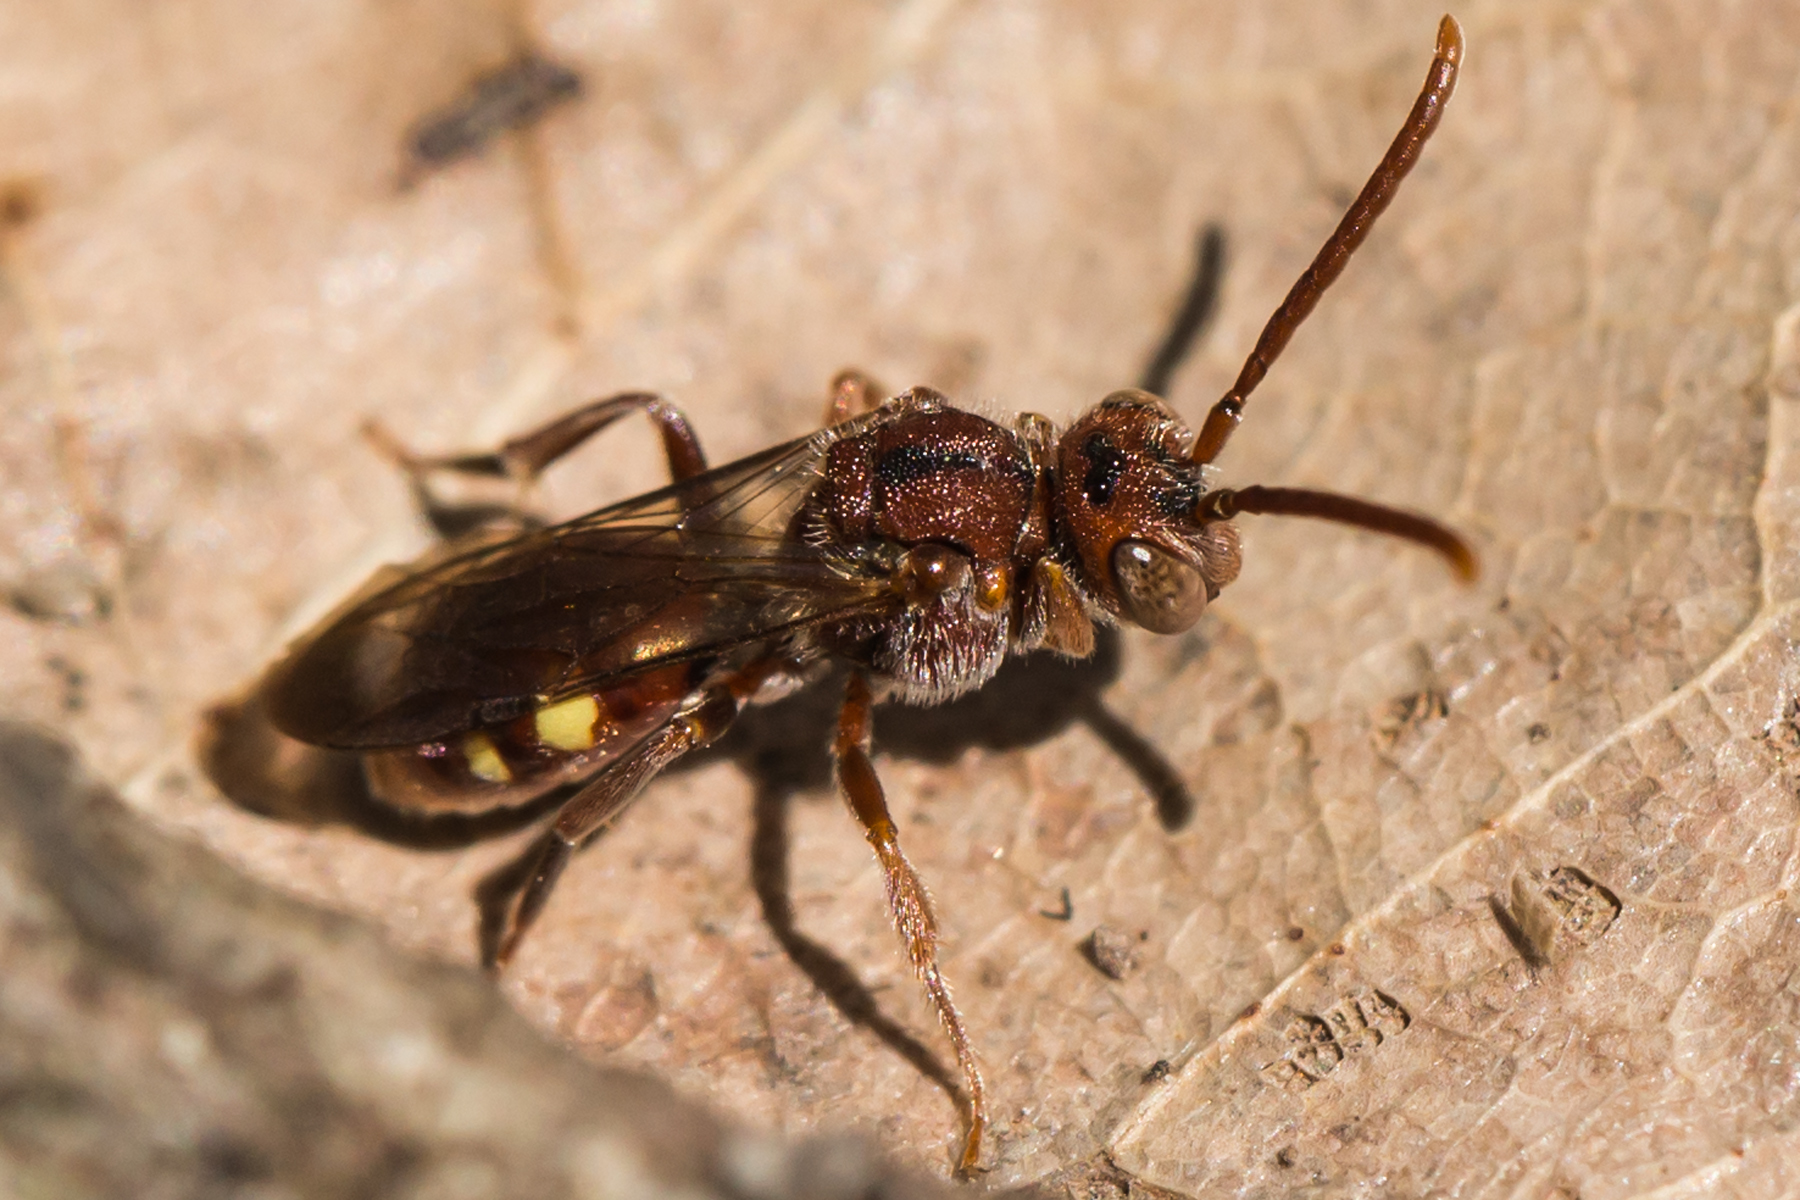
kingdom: Animalia
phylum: Arthropoda
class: Insecta
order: Hymenoptera
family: Apidae
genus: Nomada
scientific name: Nomada
